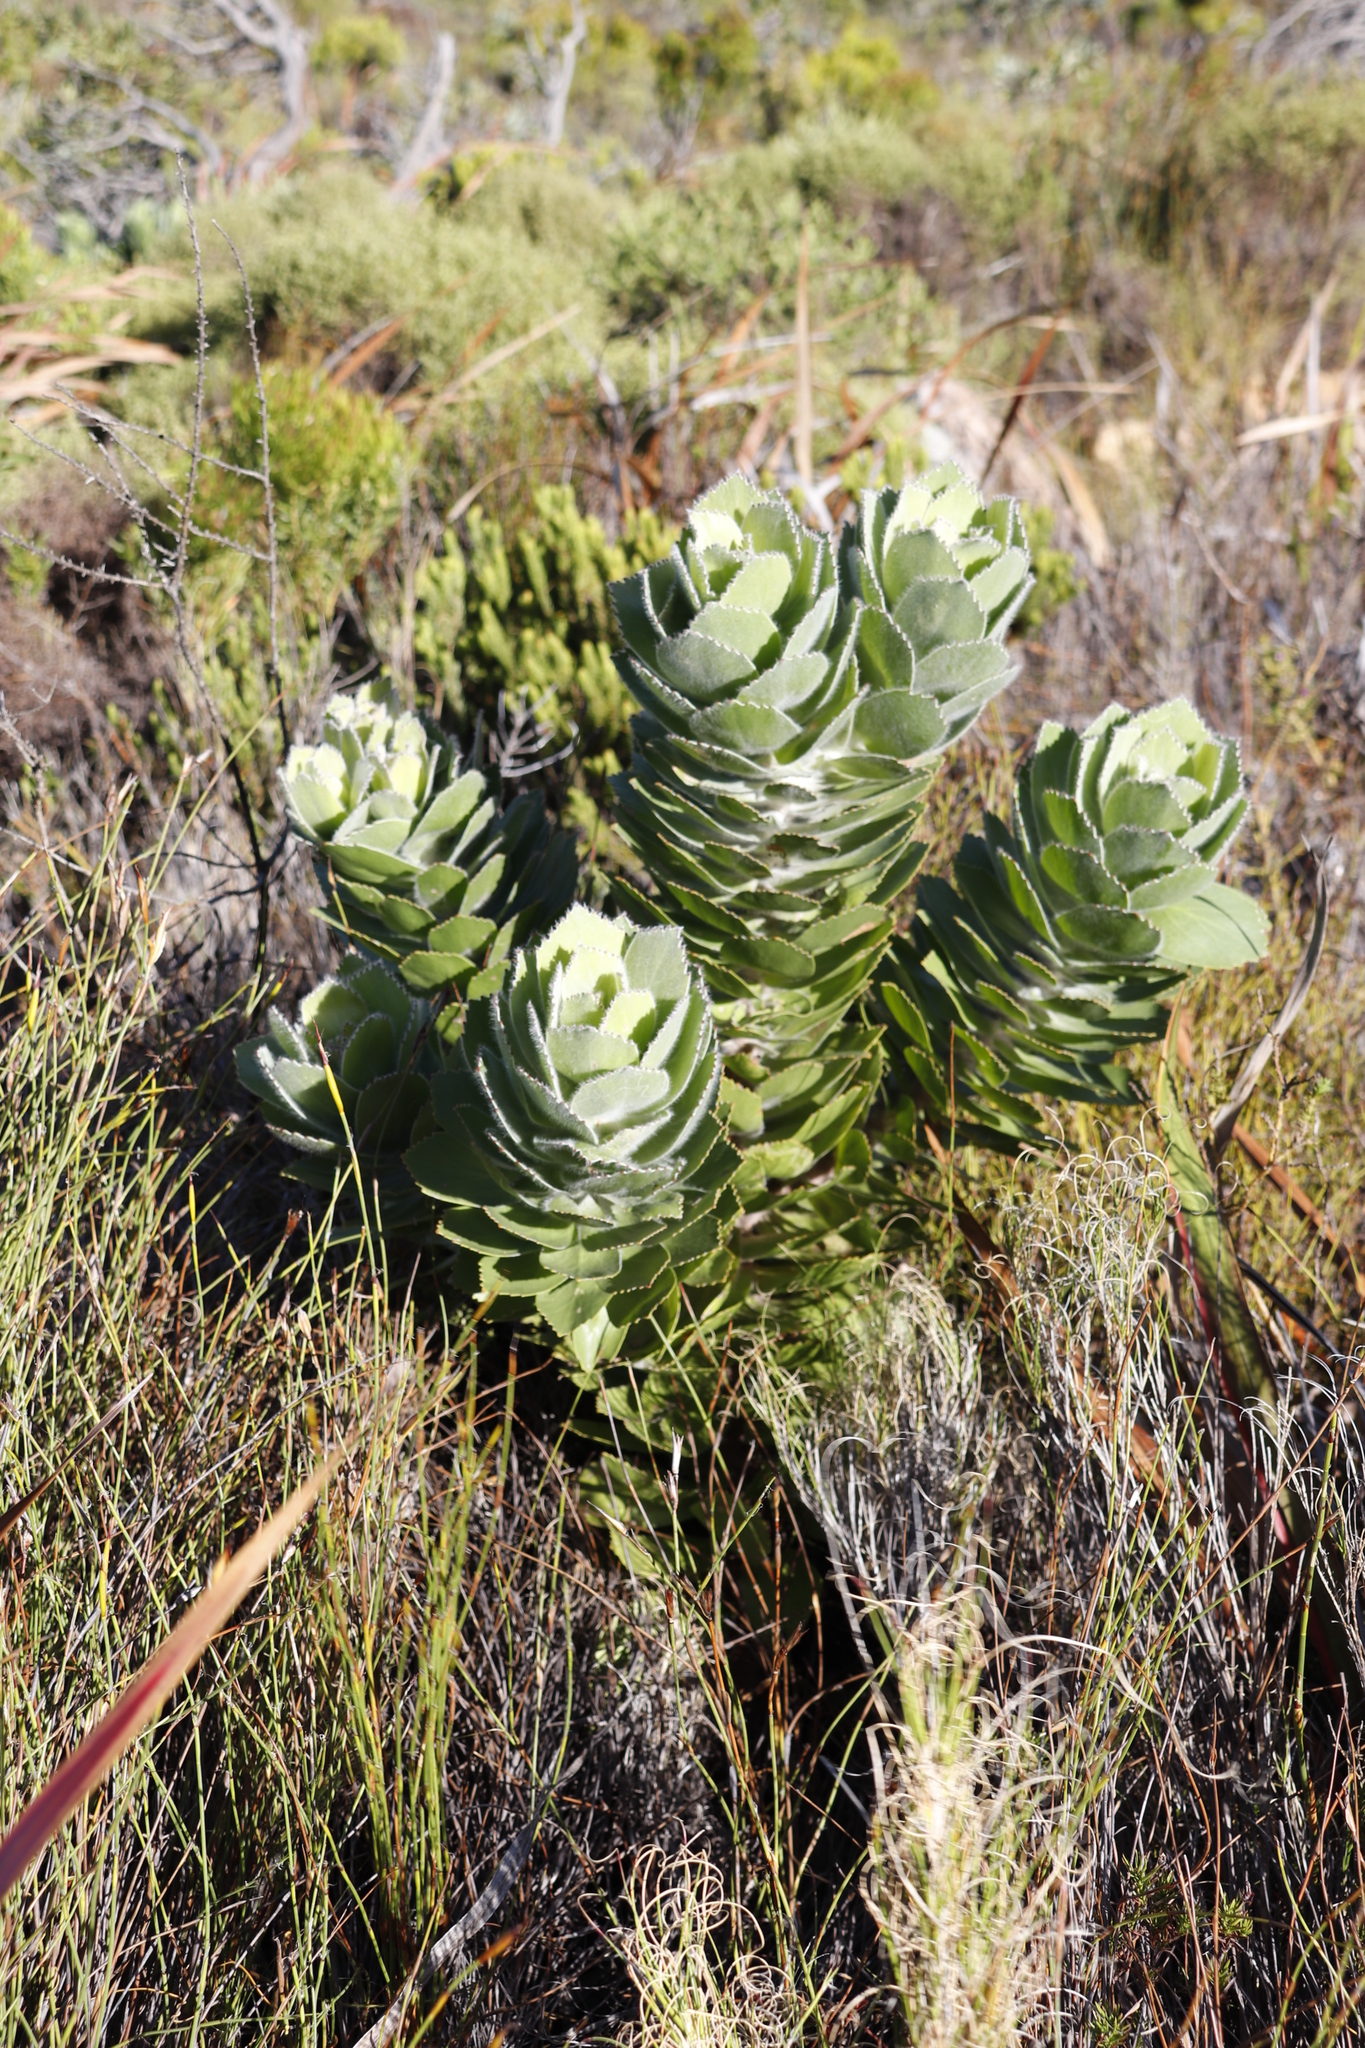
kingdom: Plantae
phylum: Tracheophyta
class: Magnoliopsida
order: Proteales
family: Proteaceae
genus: Leucospermum
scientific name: Leucospermum conocarpodendron
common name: Tree pincushion
